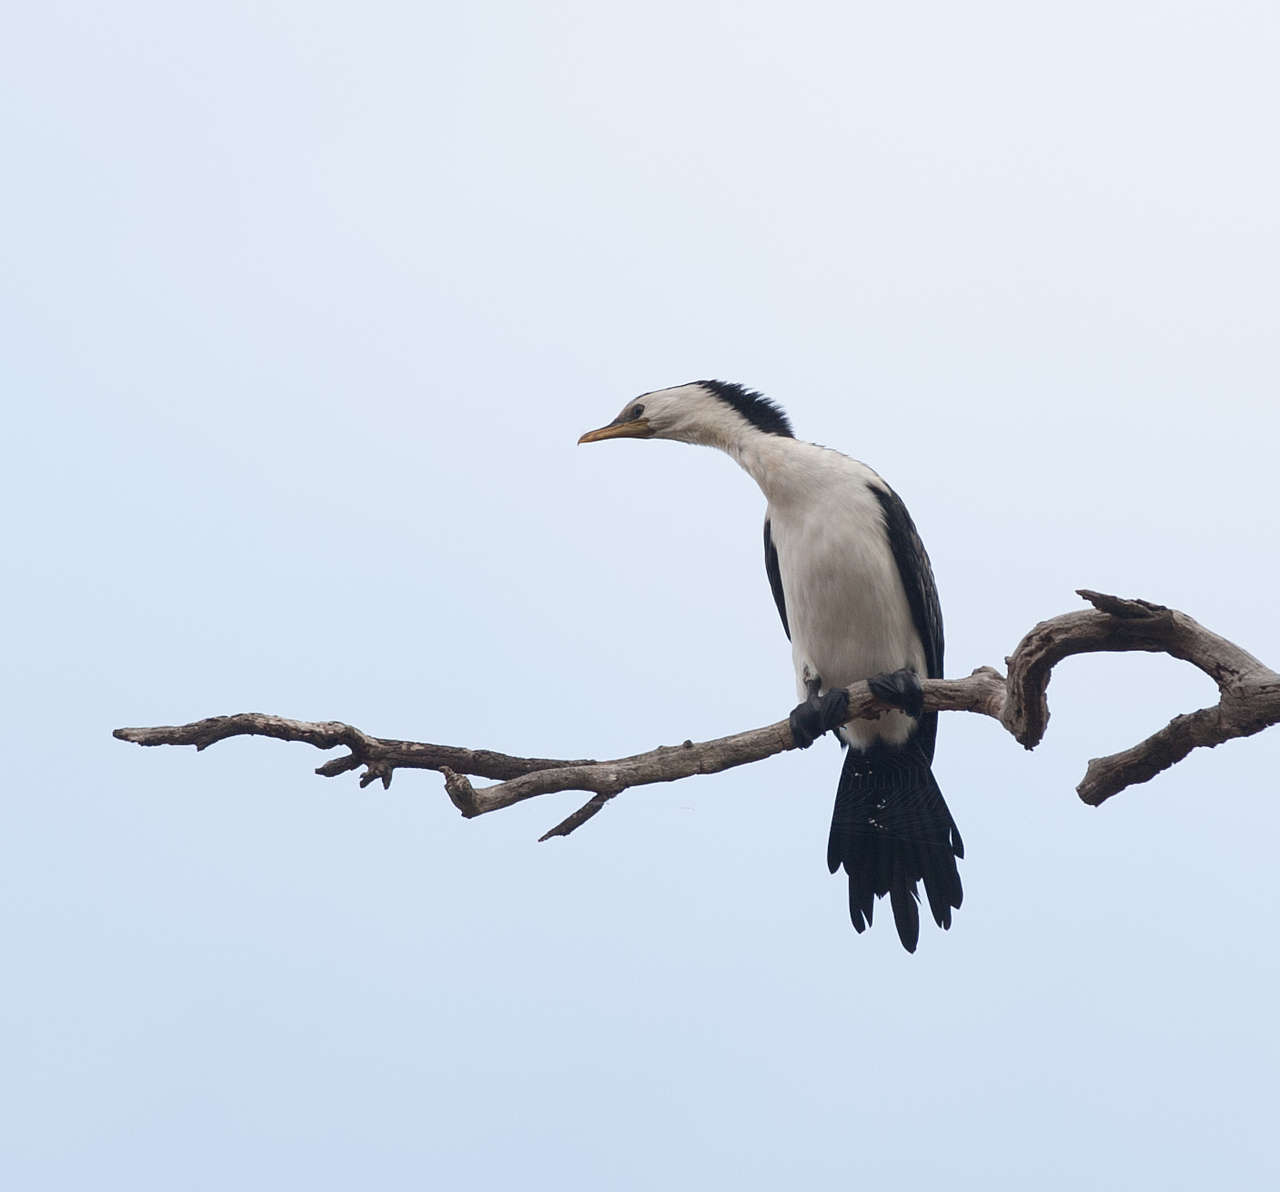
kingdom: Animalia
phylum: Chordata
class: Aves
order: Suliformes
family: Phalacrocoracidae
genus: Microcarbo
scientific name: Microcarbo melanoleucos
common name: Little pied cormorant
